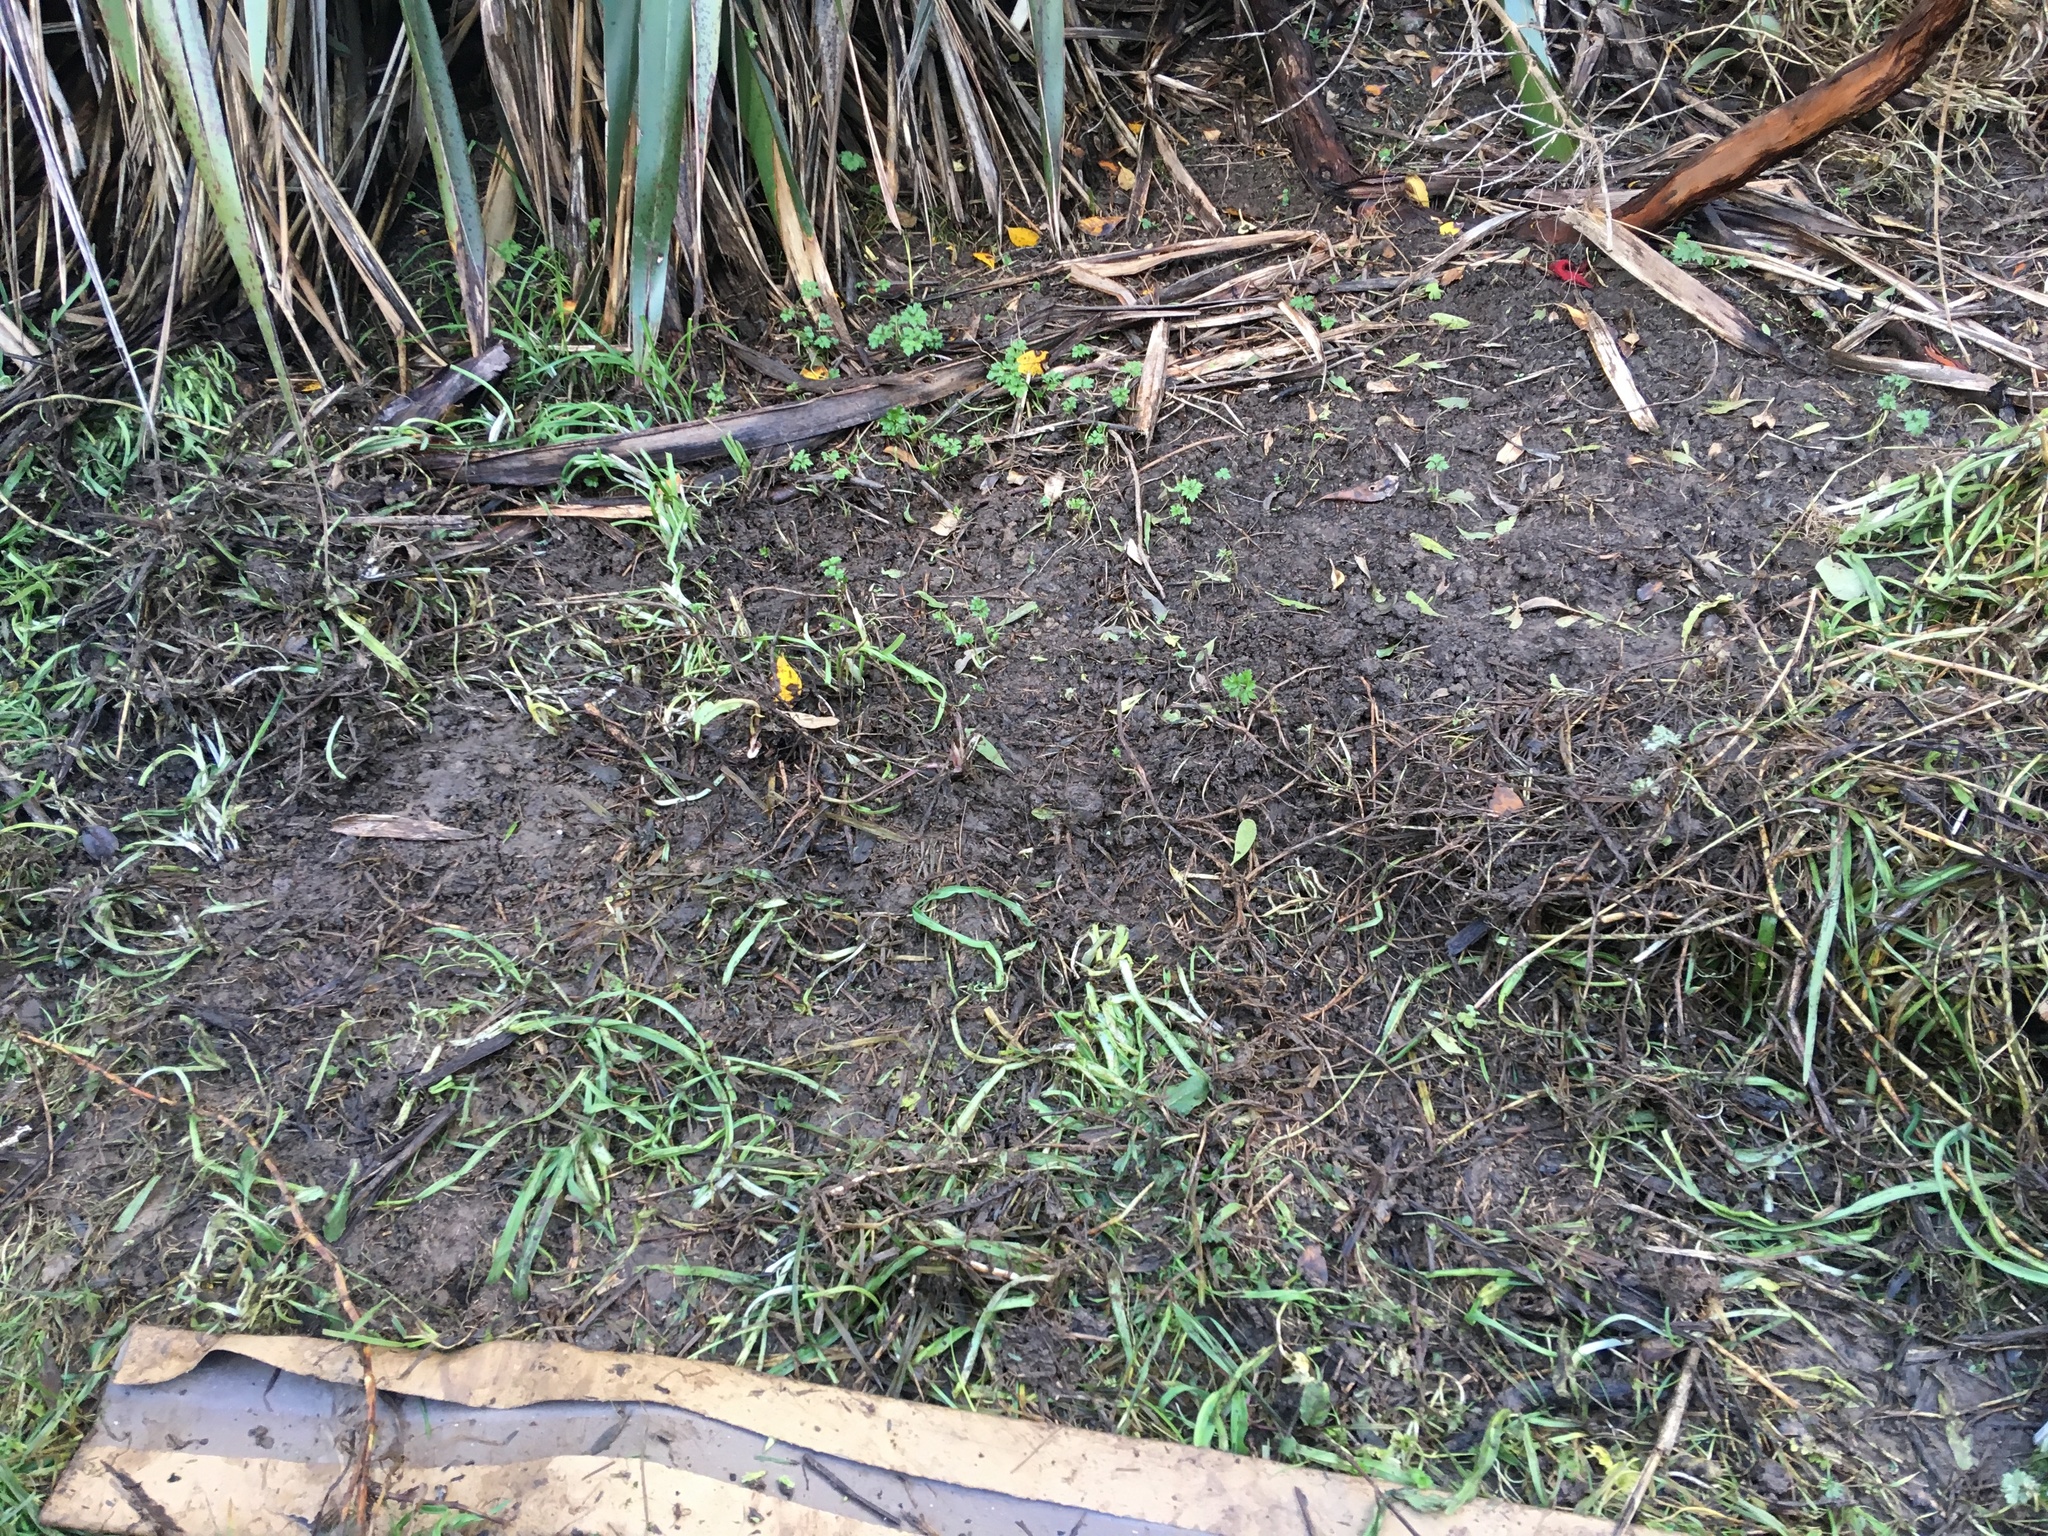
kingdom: Plantae
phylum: Tracheophyta
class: Liliopsida
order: Asparagales
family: Amaryllidaceae
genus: Allium
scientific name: Allium triquetrum
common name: Three-cornered garlic
